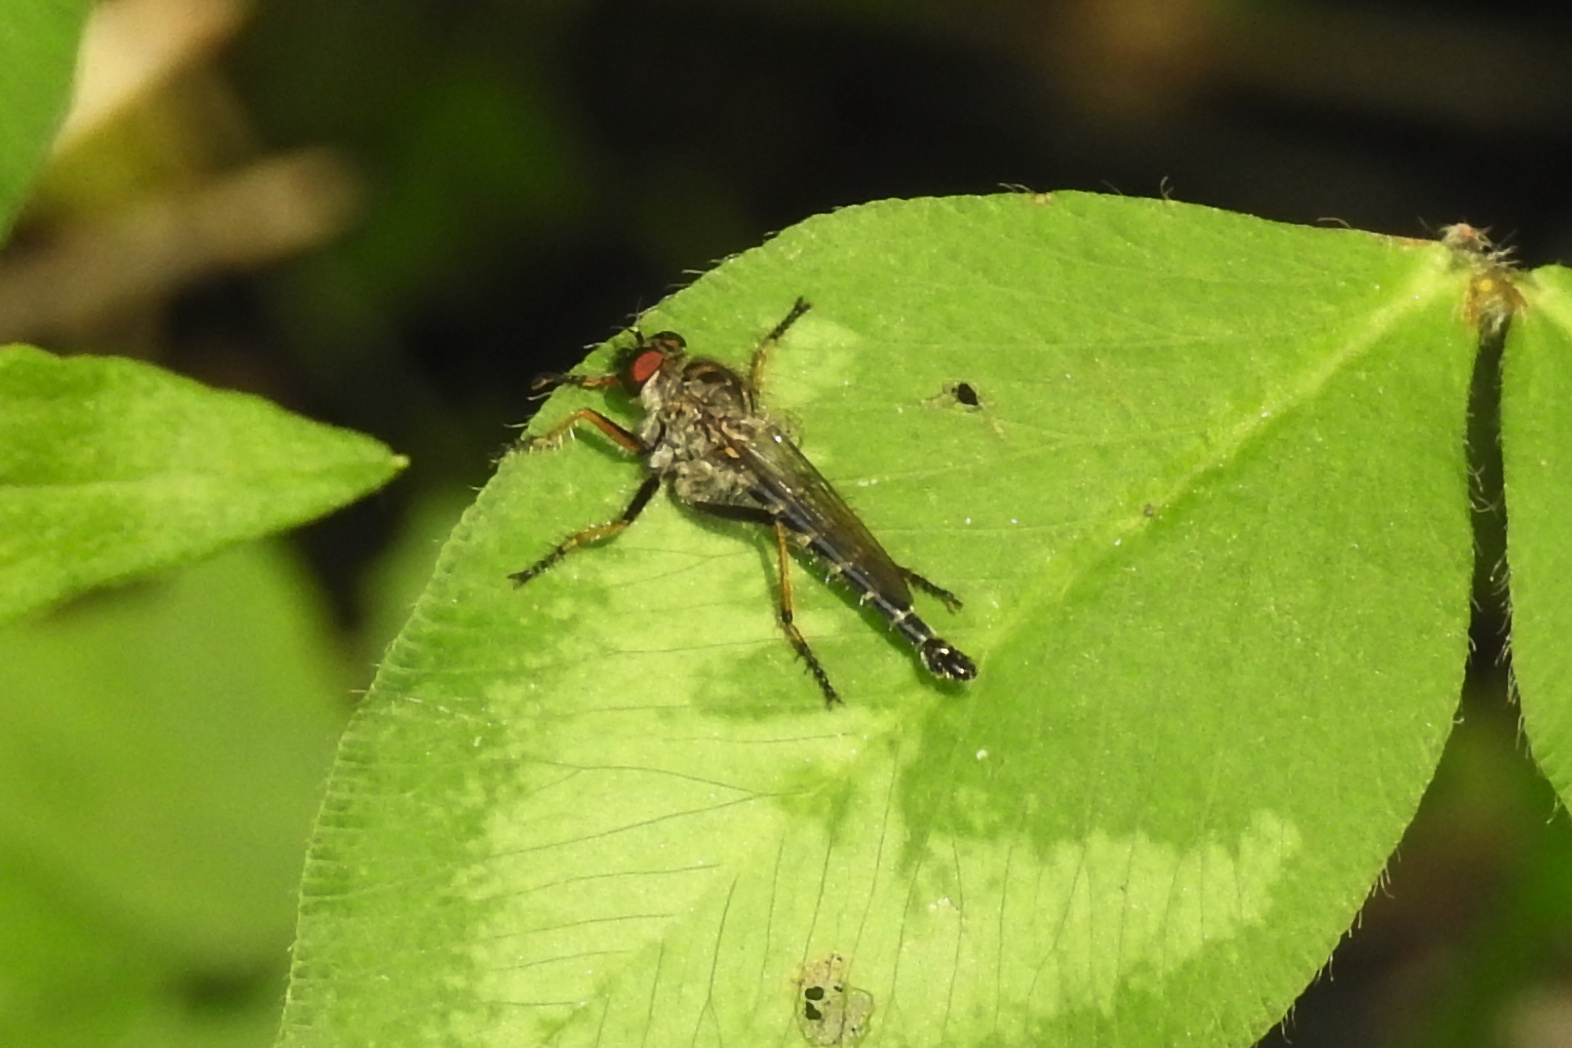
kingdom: Animalia
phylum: Arthropoda
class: Insecta
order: Diptera
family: Asilidae
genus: Asilus
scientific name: Asilus flavofemoratus
